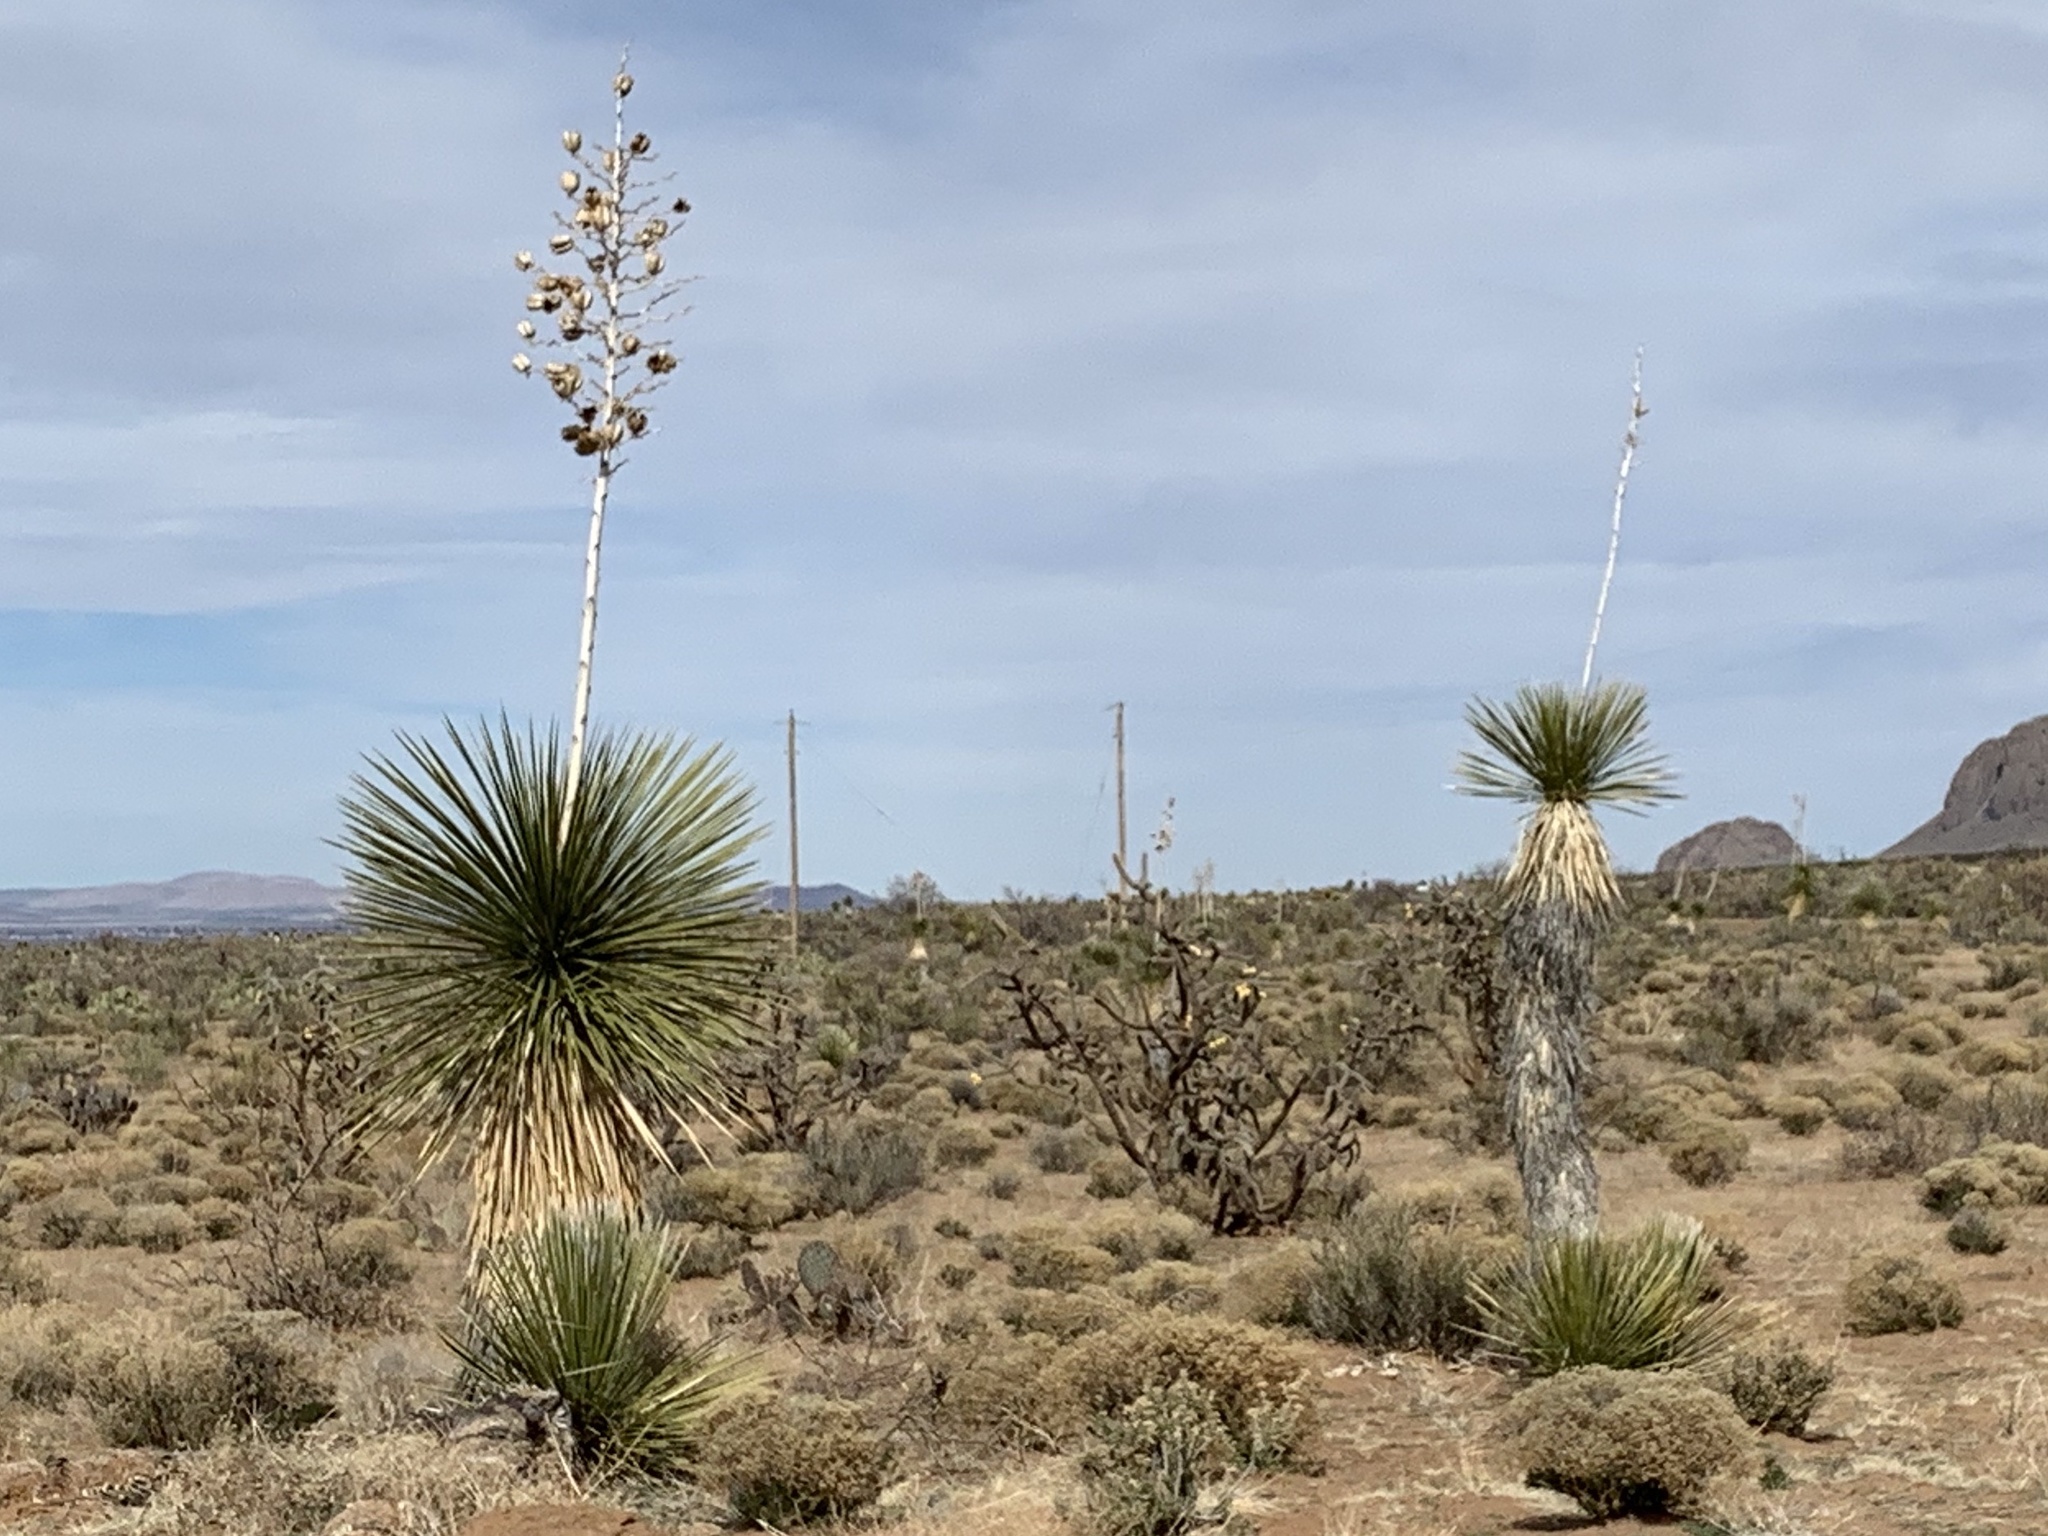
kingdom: Plantae
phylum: Tracheophyta
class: Liliopsida
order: Asparagales
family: Asparagaceae
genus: Yucca
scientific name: Yucca elata
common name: Palmella
